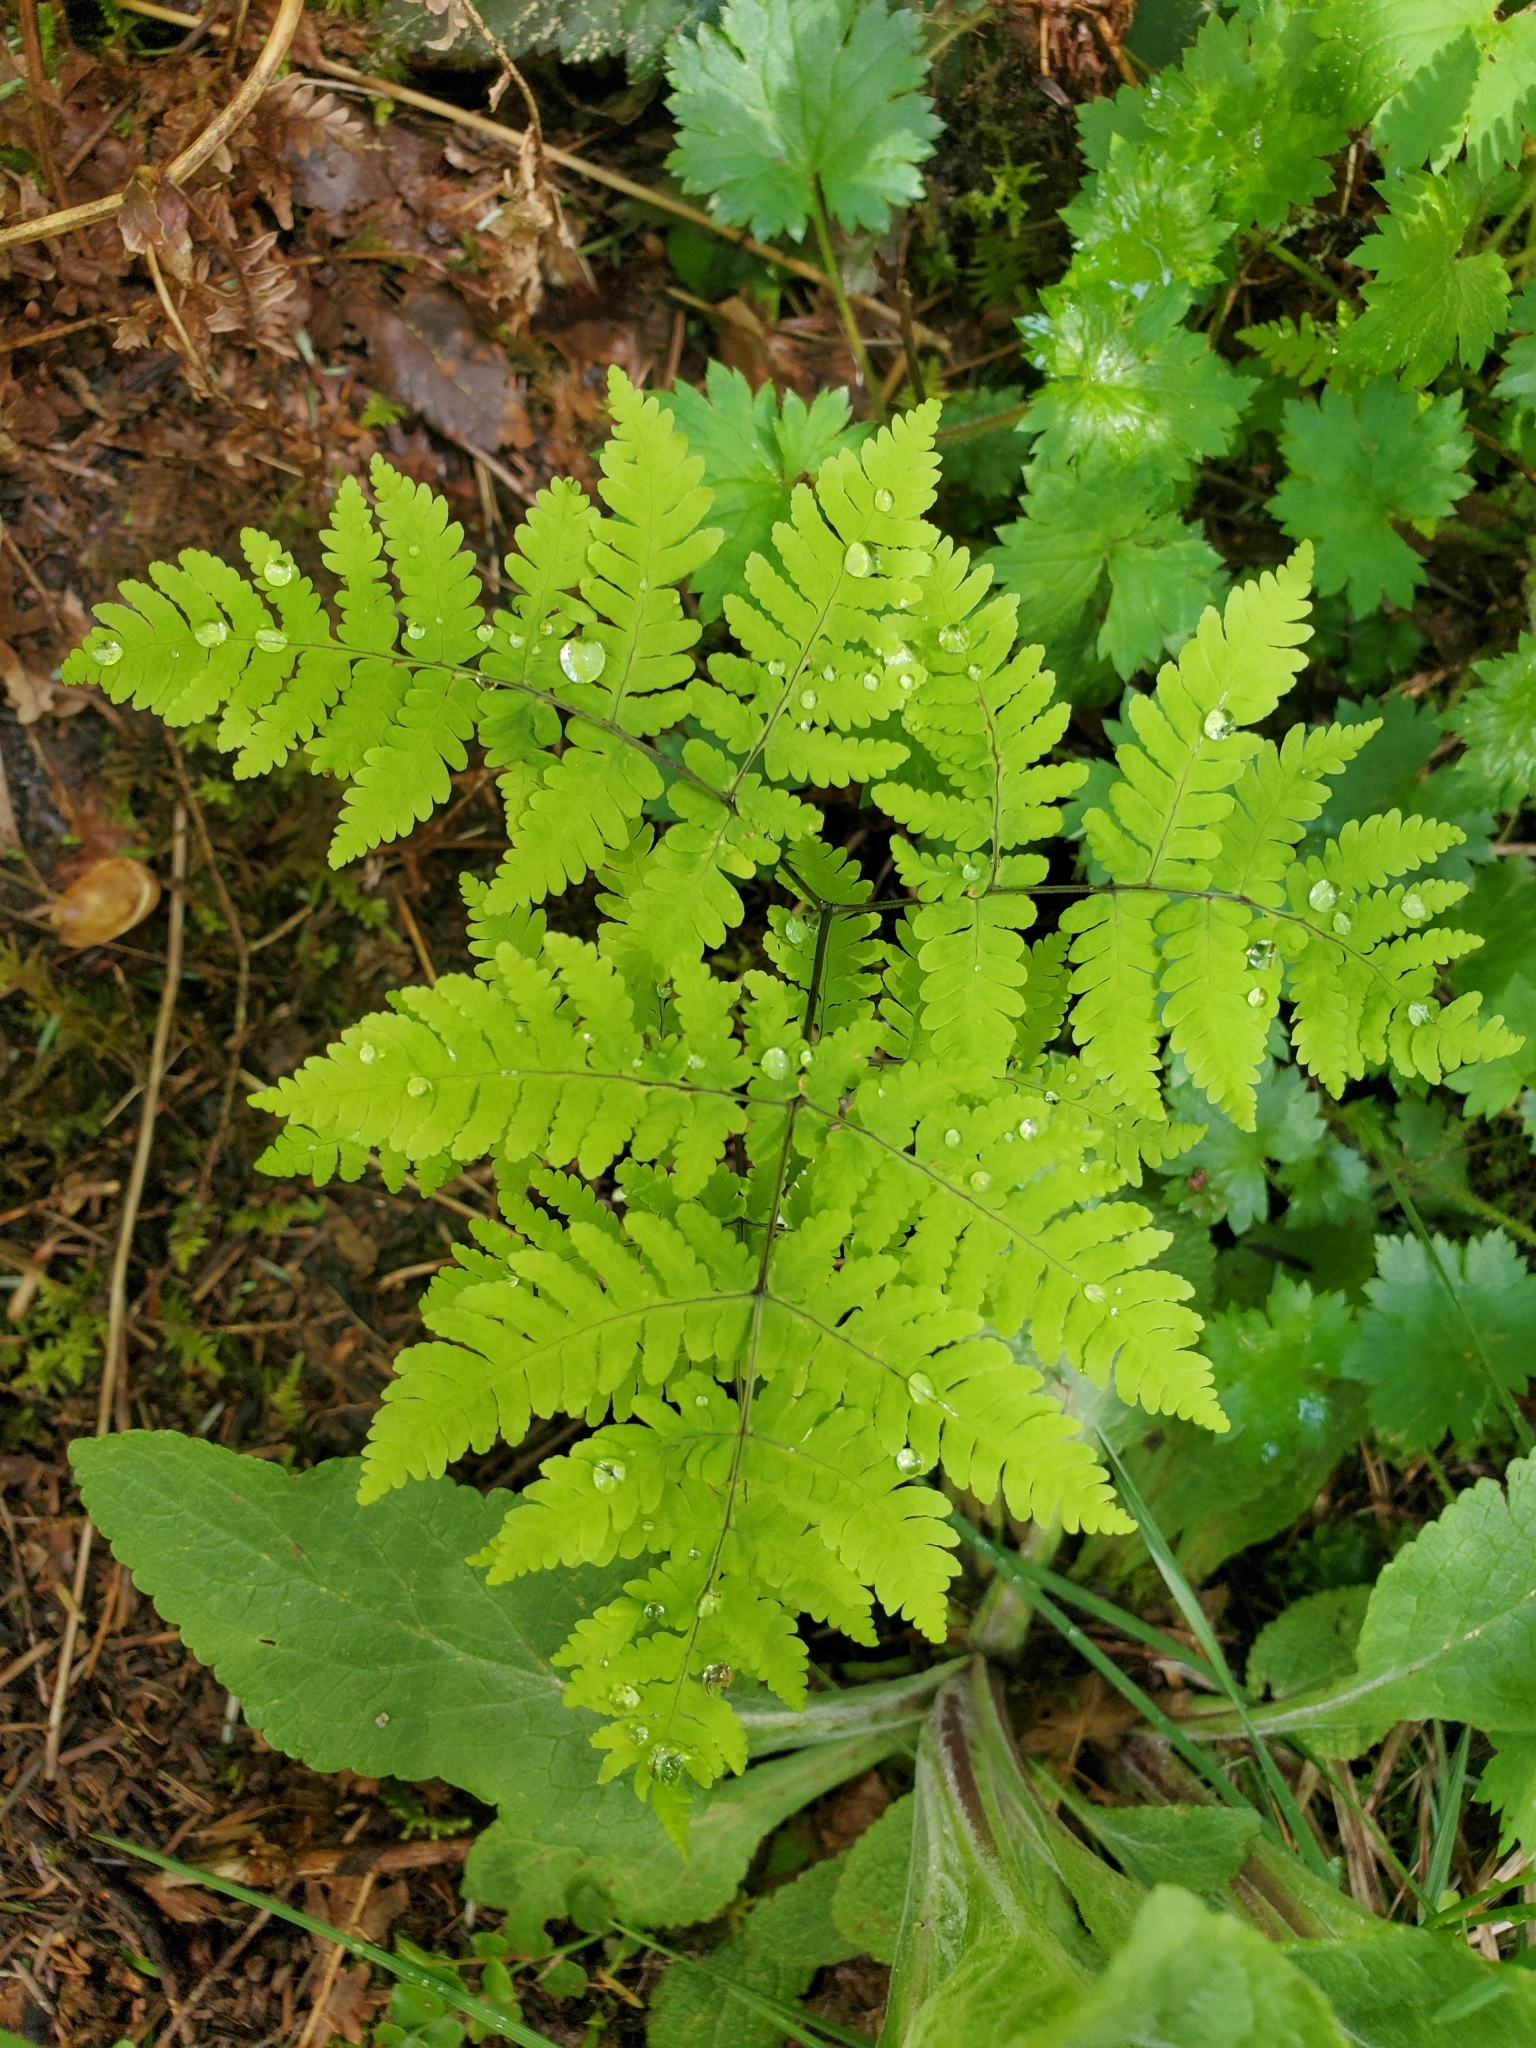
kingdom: Plantae
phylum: Tracheophyta
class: Polypodiopsida
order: Polypodiales
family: Cystopteridaceae
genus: Gymnocarpium
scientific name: Gymnocarpium disjunctum
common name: Western oak fern
